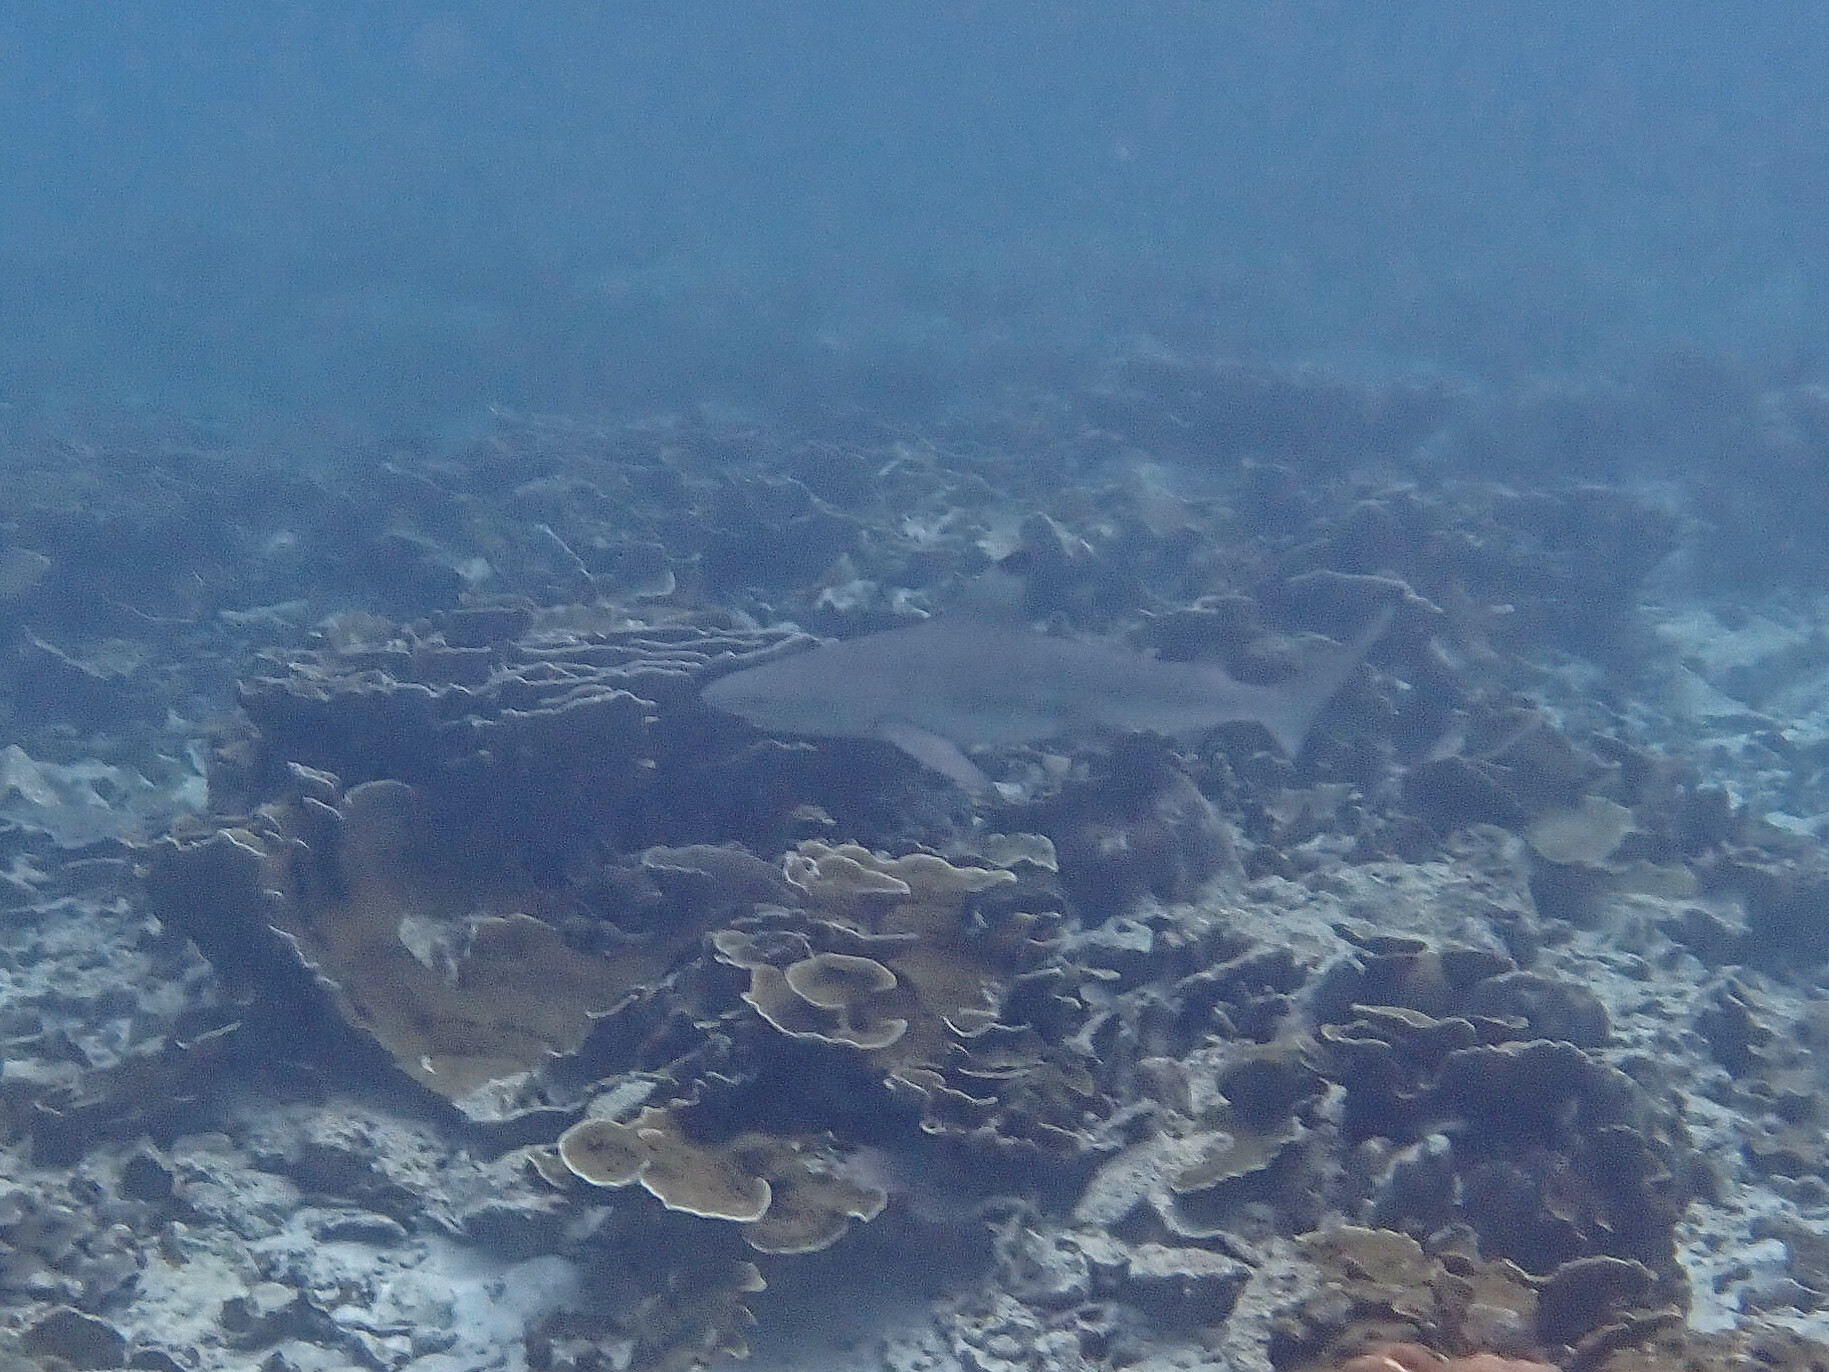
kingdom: Animalia
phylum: Chordata
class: Elasmobranchii
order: Carcharhiniformes
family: Carcharhinidae
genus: Carcharhinus
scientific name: Carcharhinus melanopterus
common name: Blacktip reef shark
